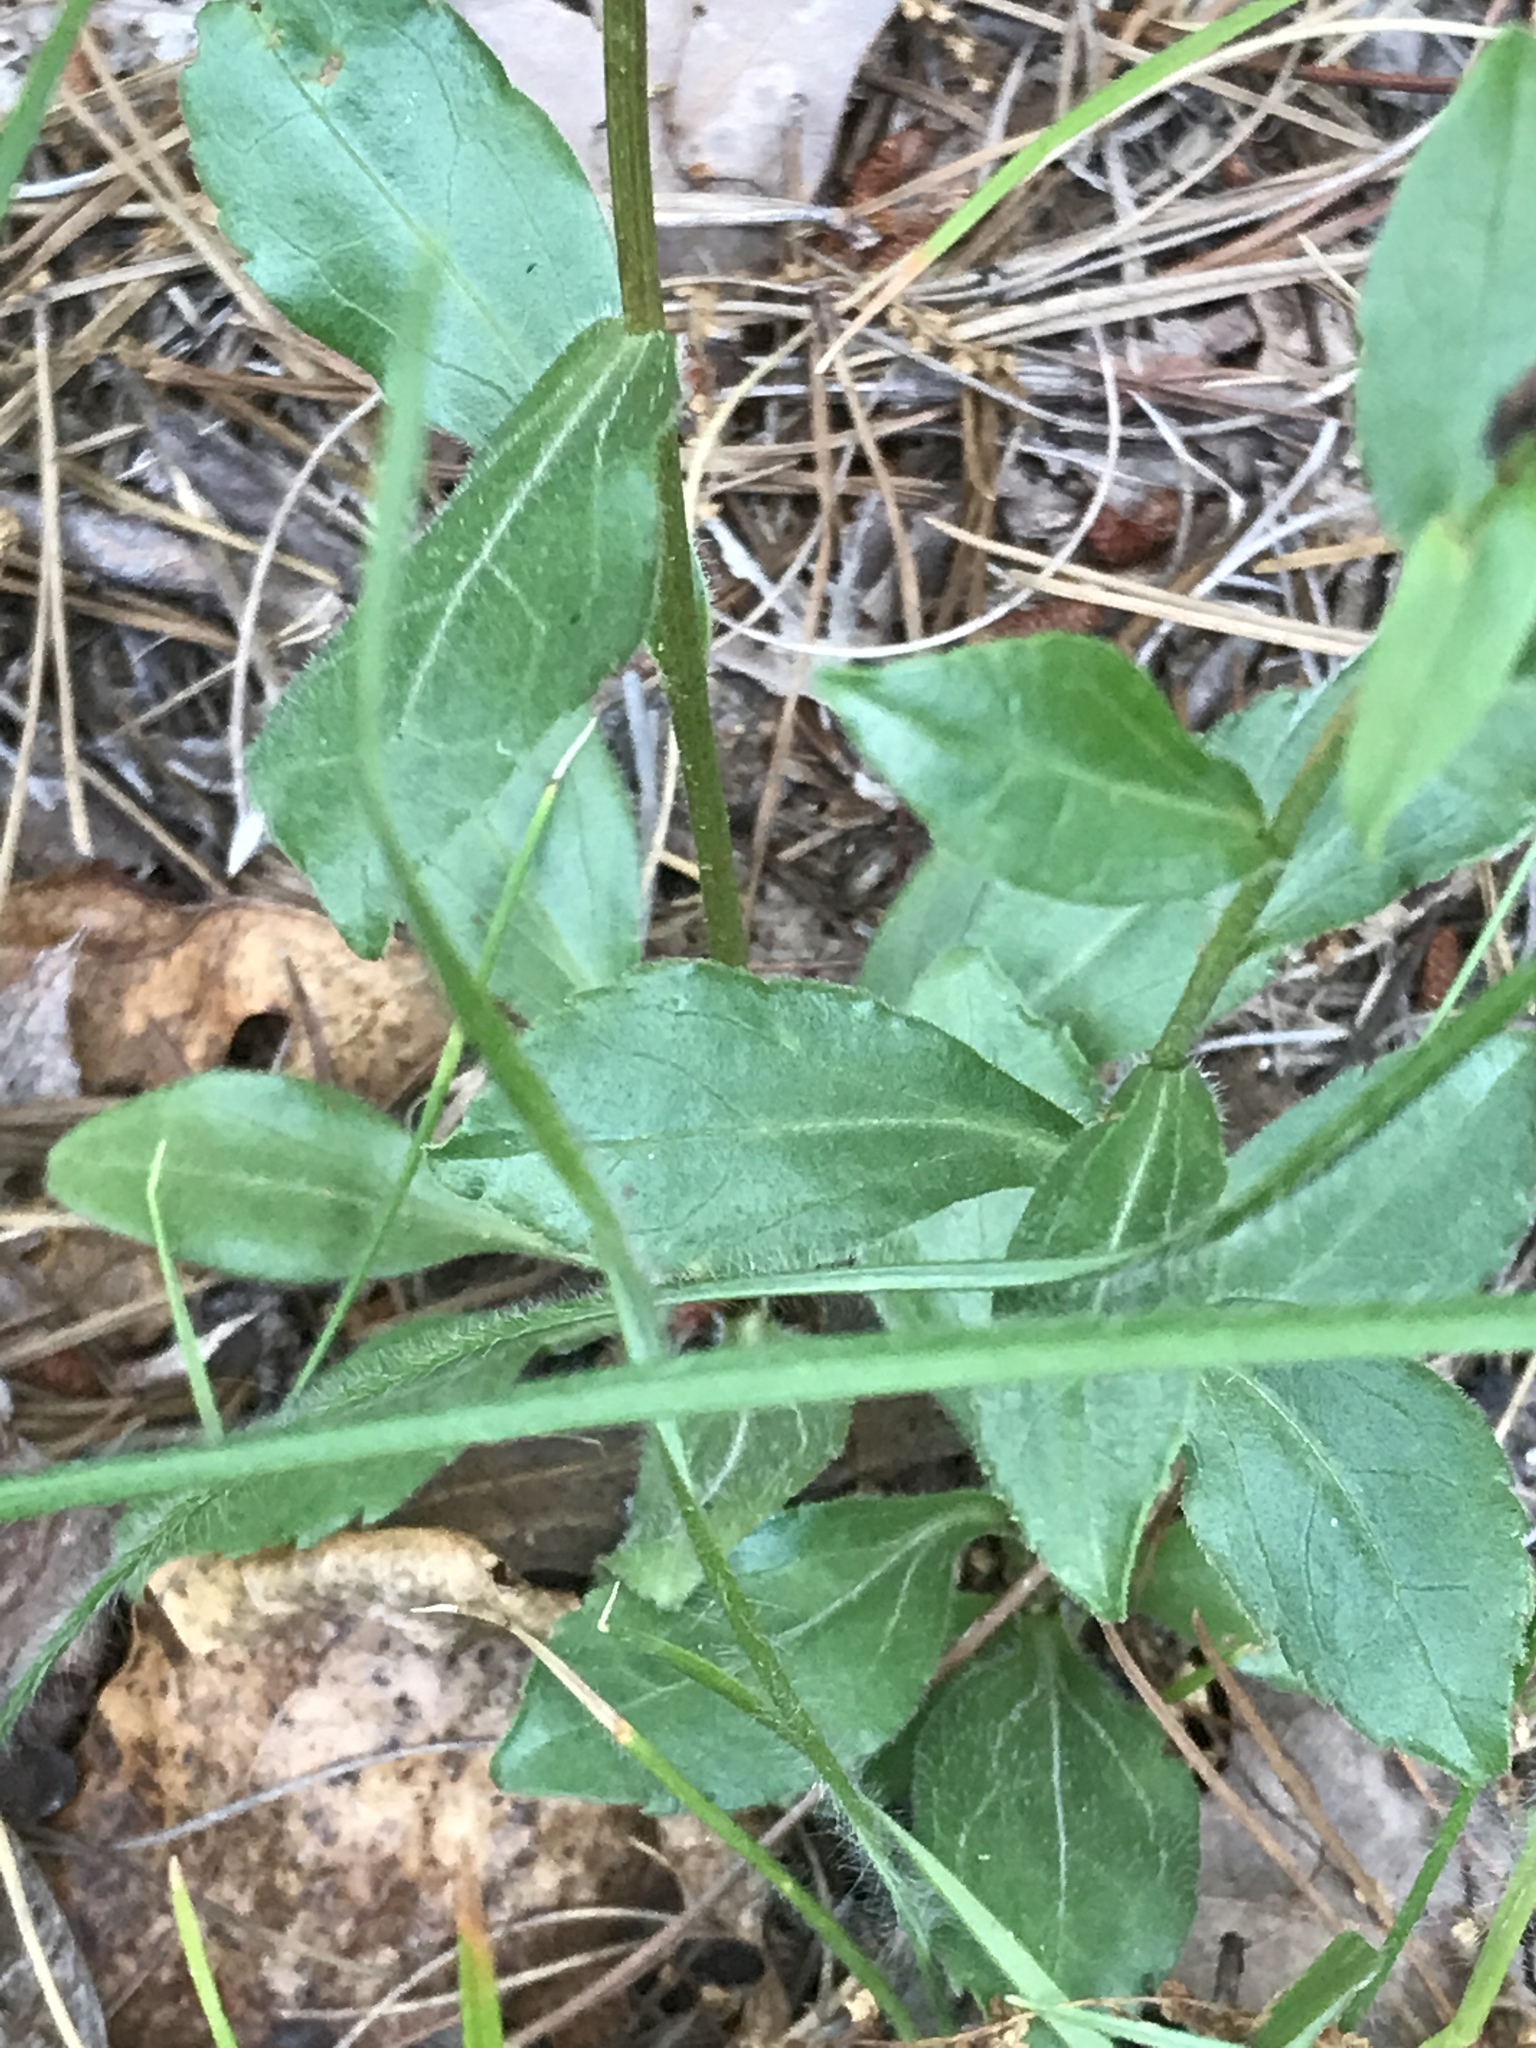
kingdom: Plantae
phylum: Tracheophyta
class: Magnoliopsida
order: Asterales
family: Asteraceae
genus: Sericocarpus
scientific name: Sericocarpus asteroides
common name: Toothed white-top aster
